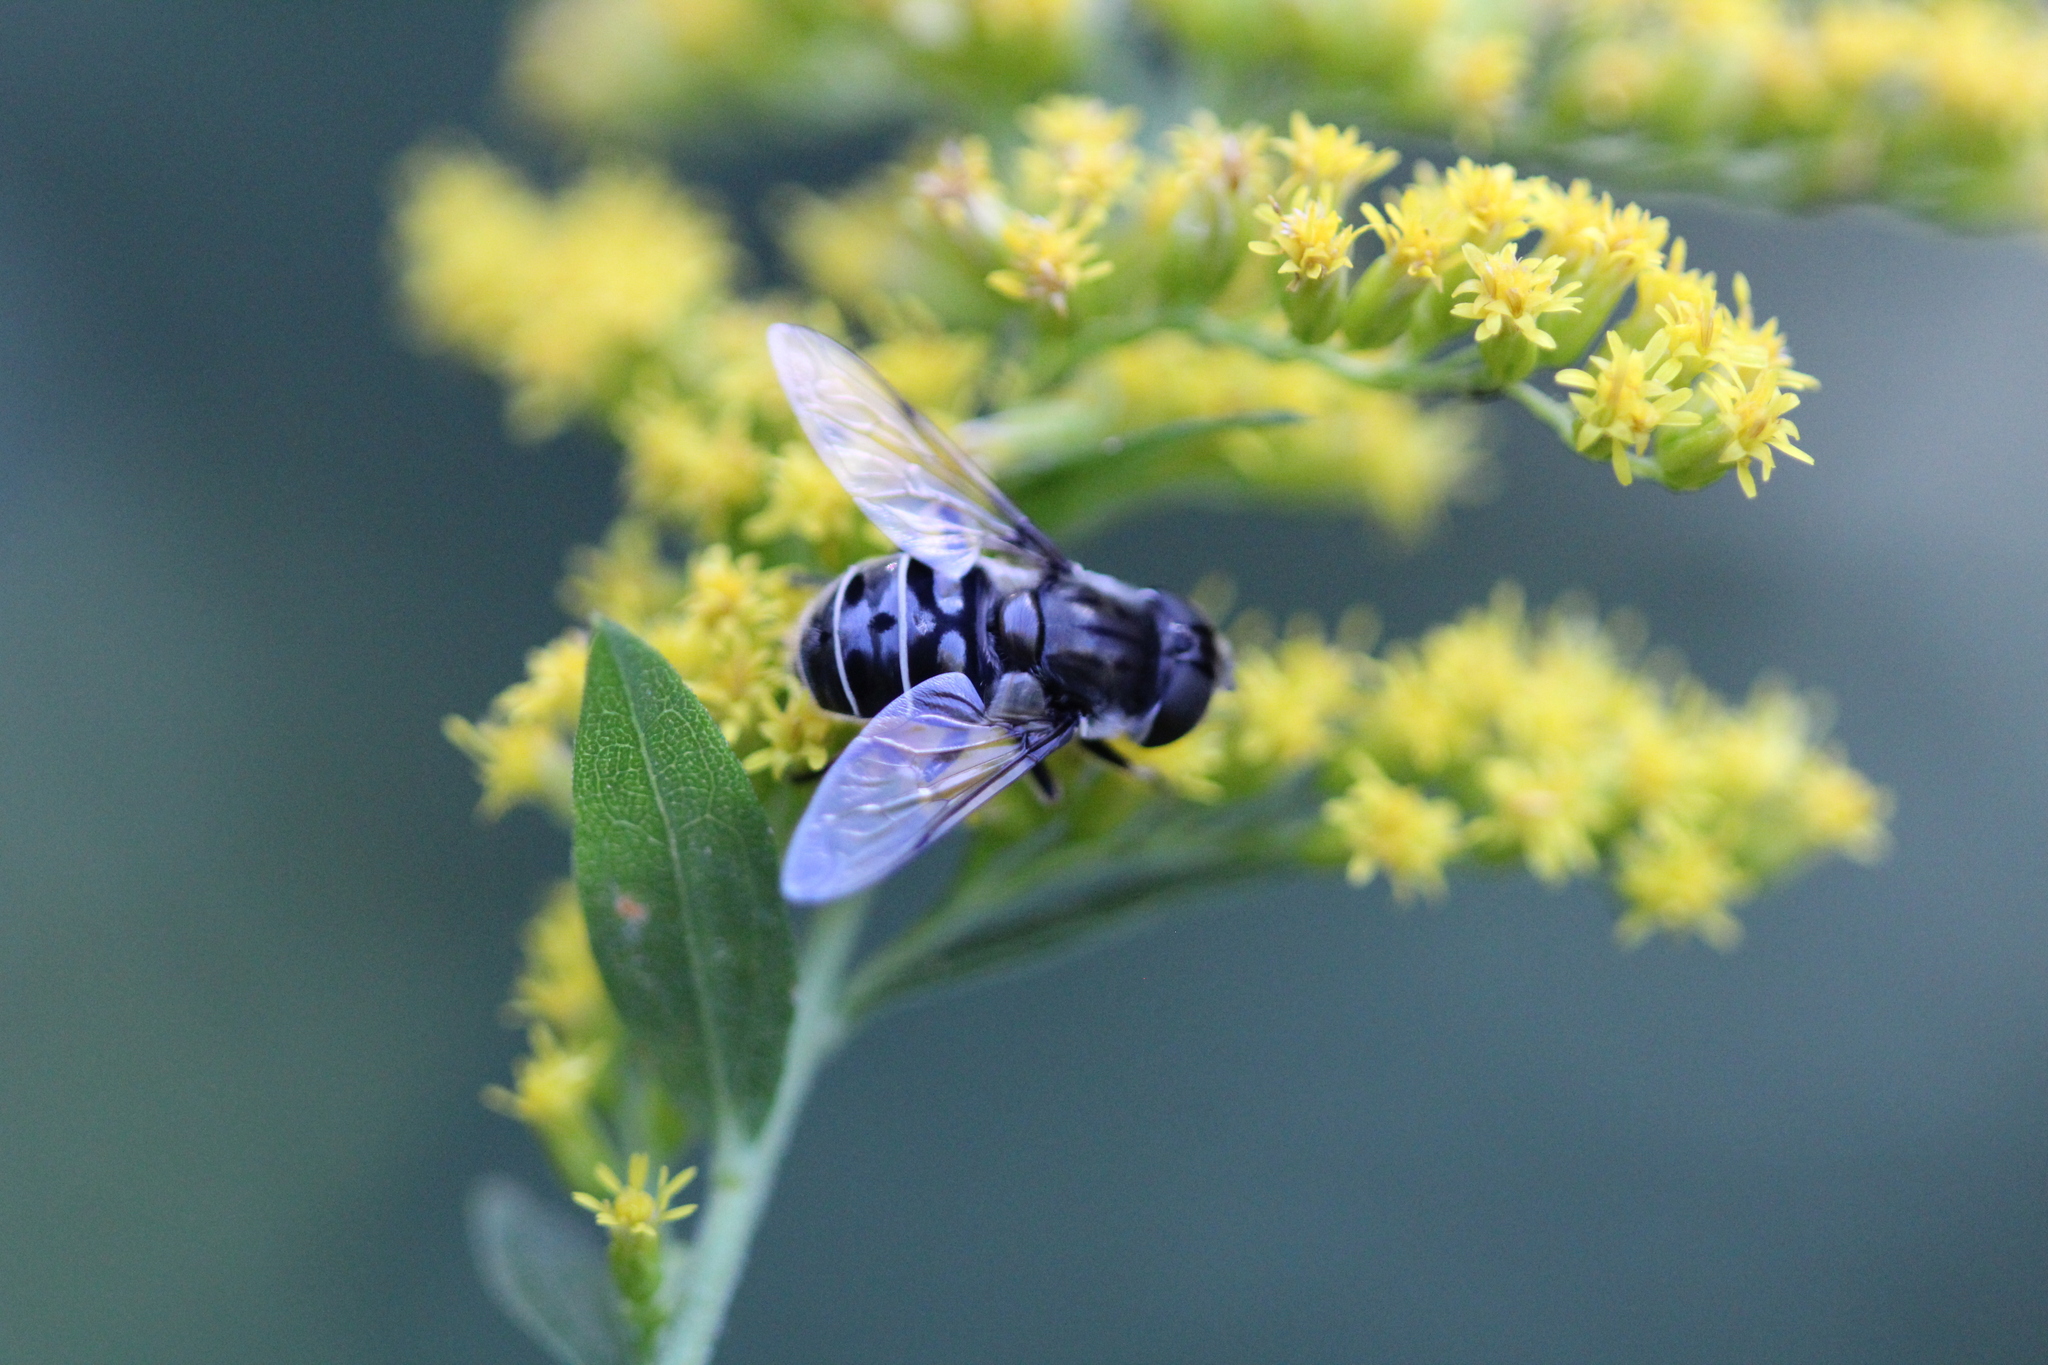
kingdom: Animalia
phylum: Arthropoda
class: Insecta
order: Diptera
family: Syrphidae
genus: Eristalis
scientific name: Eristalis dimidiata
